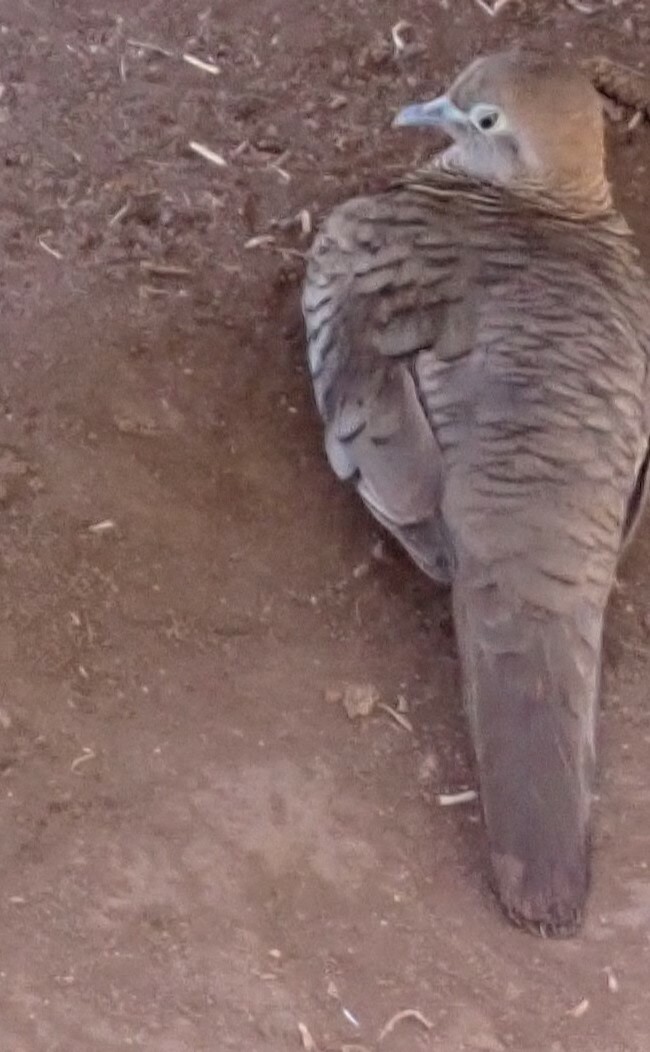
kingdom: Animalia
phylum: Chordata
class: Aves
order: Columbiformes
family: Columbidae
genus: Geopelia
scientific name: Geopelia striata
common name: Zebra dove
